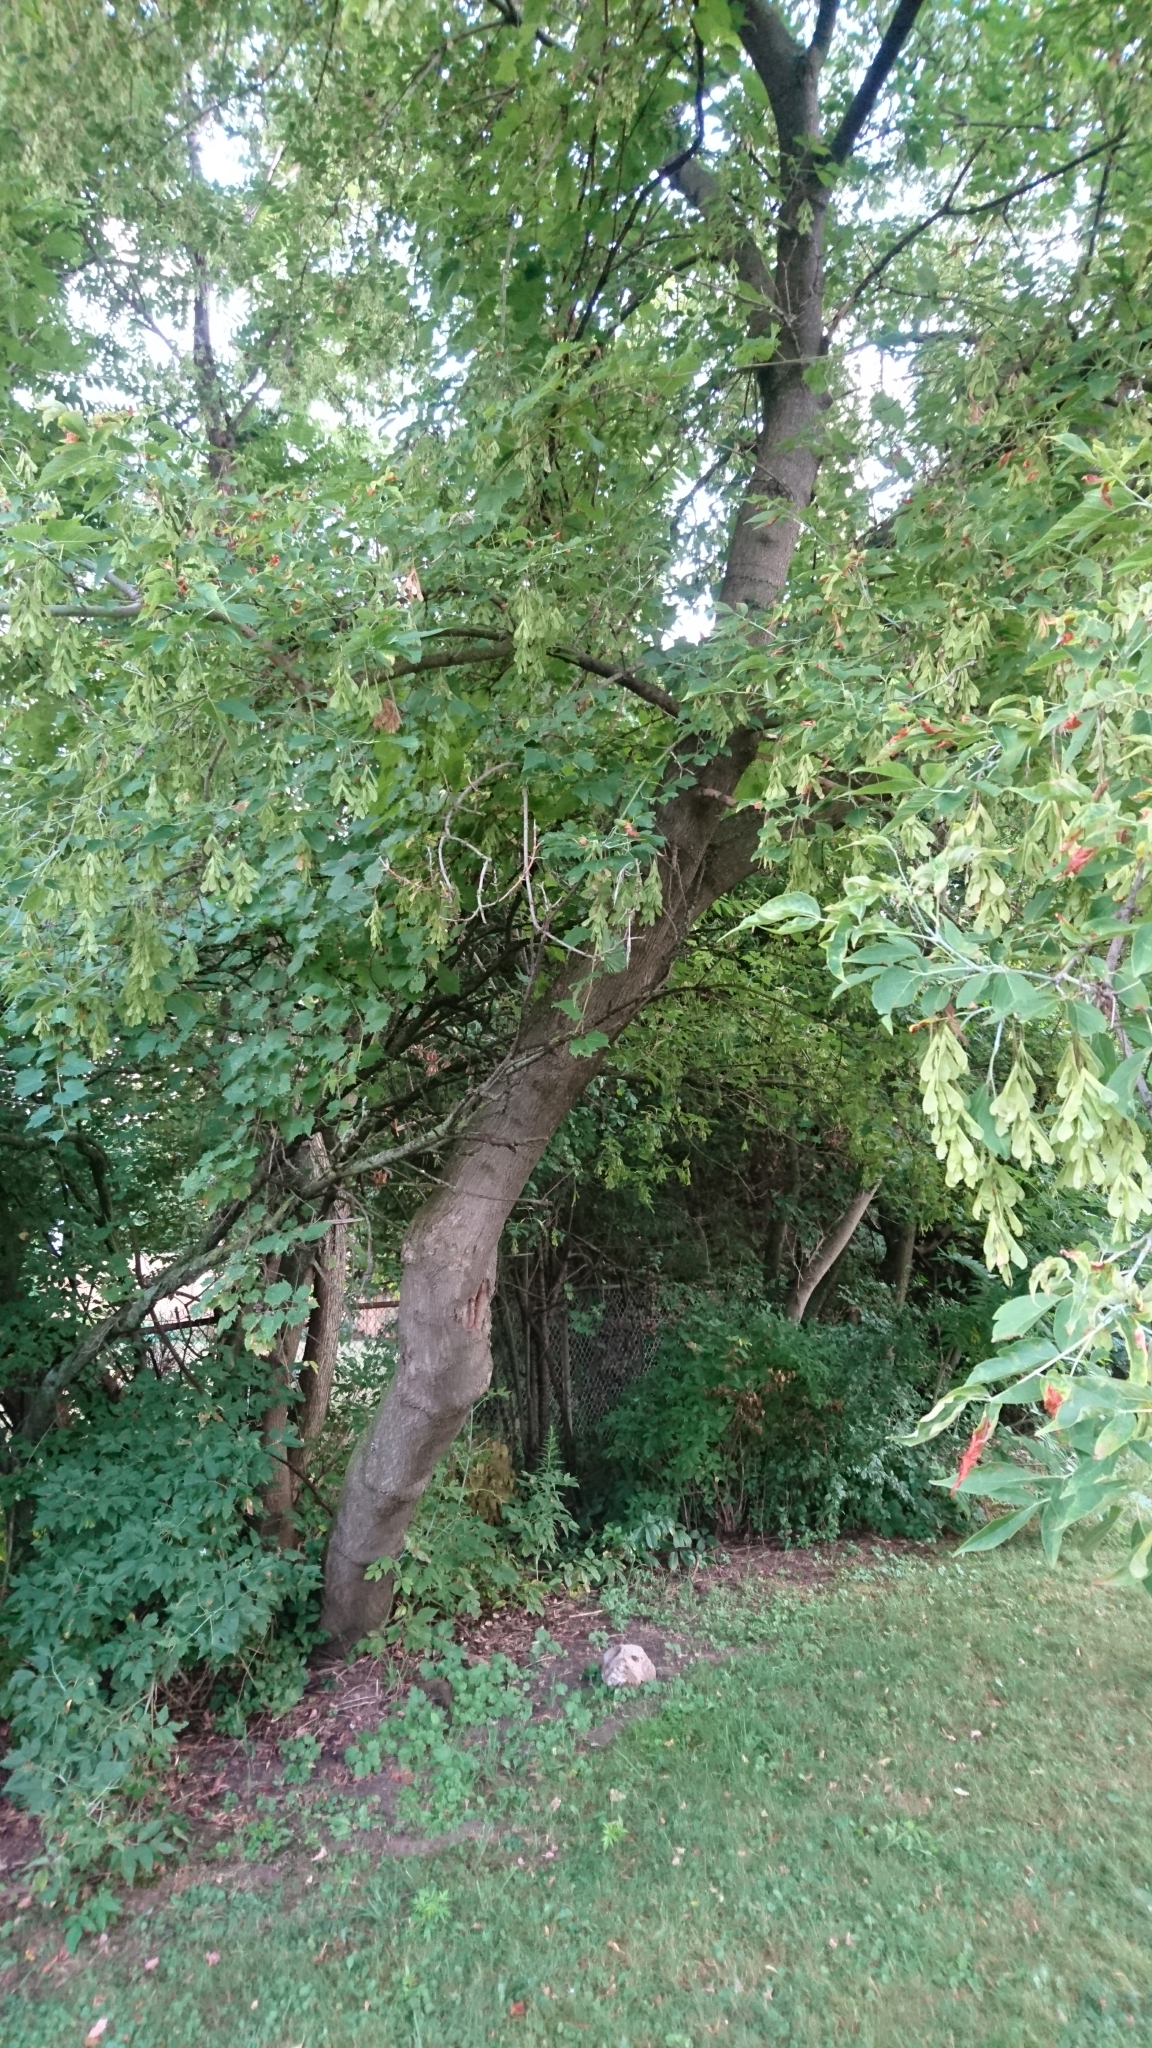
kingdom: Plantae
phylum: Tracheophyta
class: Magnoliopsida
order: Sapindales
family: Sapindaceae
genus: Acer
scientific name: Acer negundo
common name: Ashleaf maple
